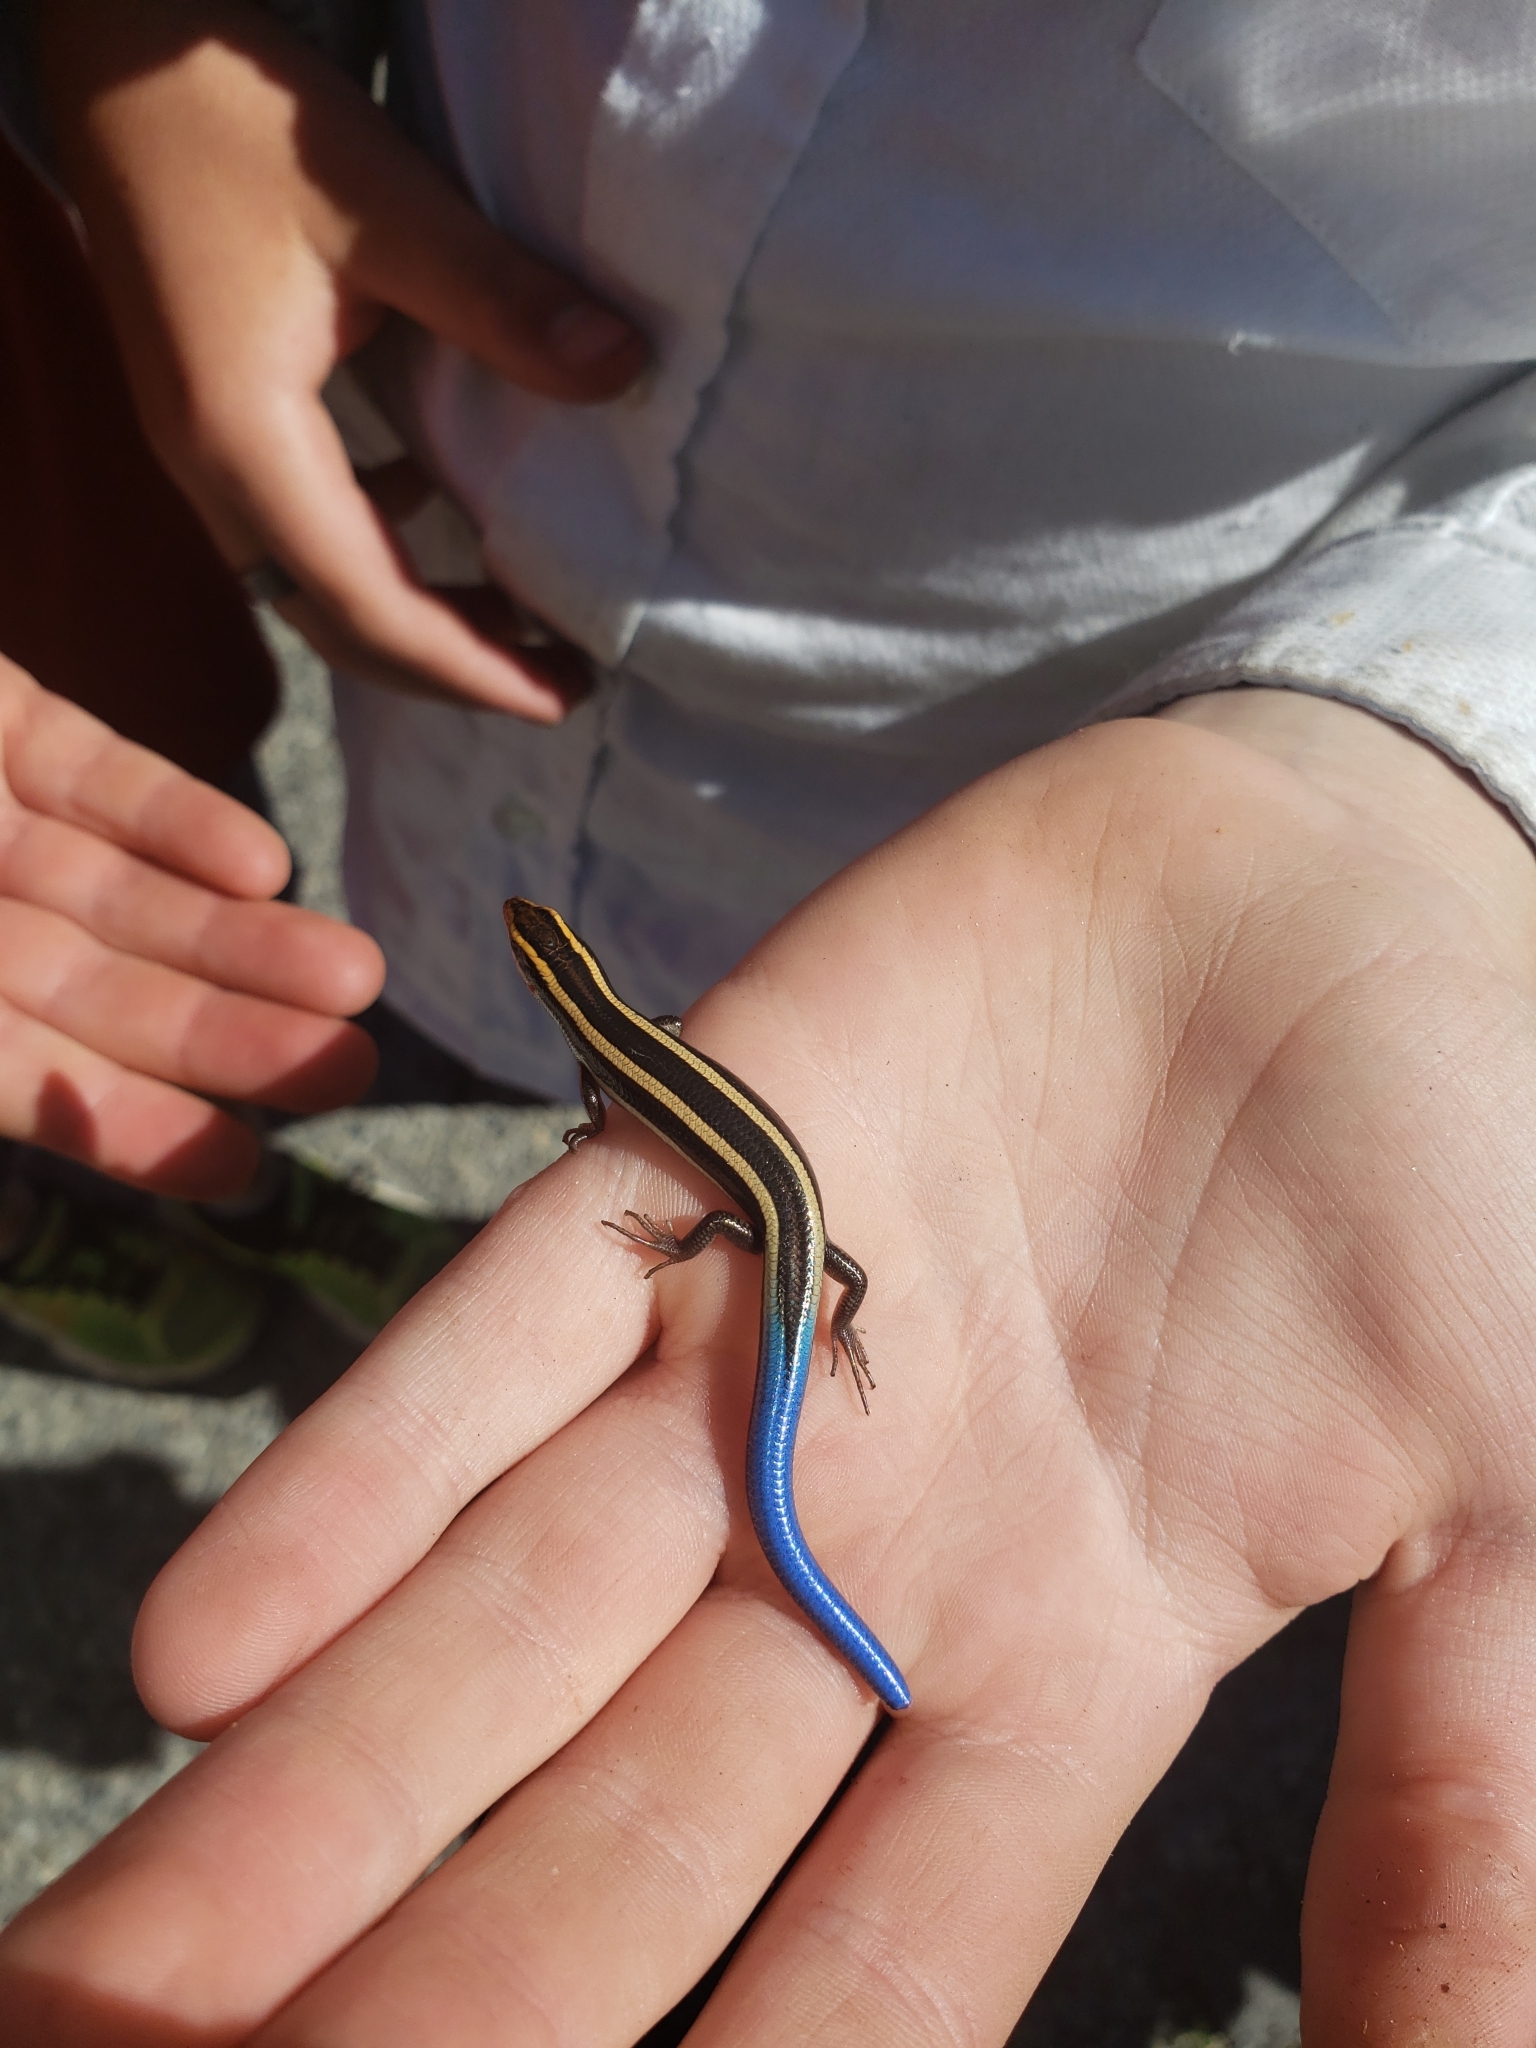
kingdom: Animalia
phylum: Chordata
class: Squamata
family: Scincidae
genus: Plestiodon
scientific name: Plestiodon skiltonianus
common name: Coronado island skink [interparietalis]
